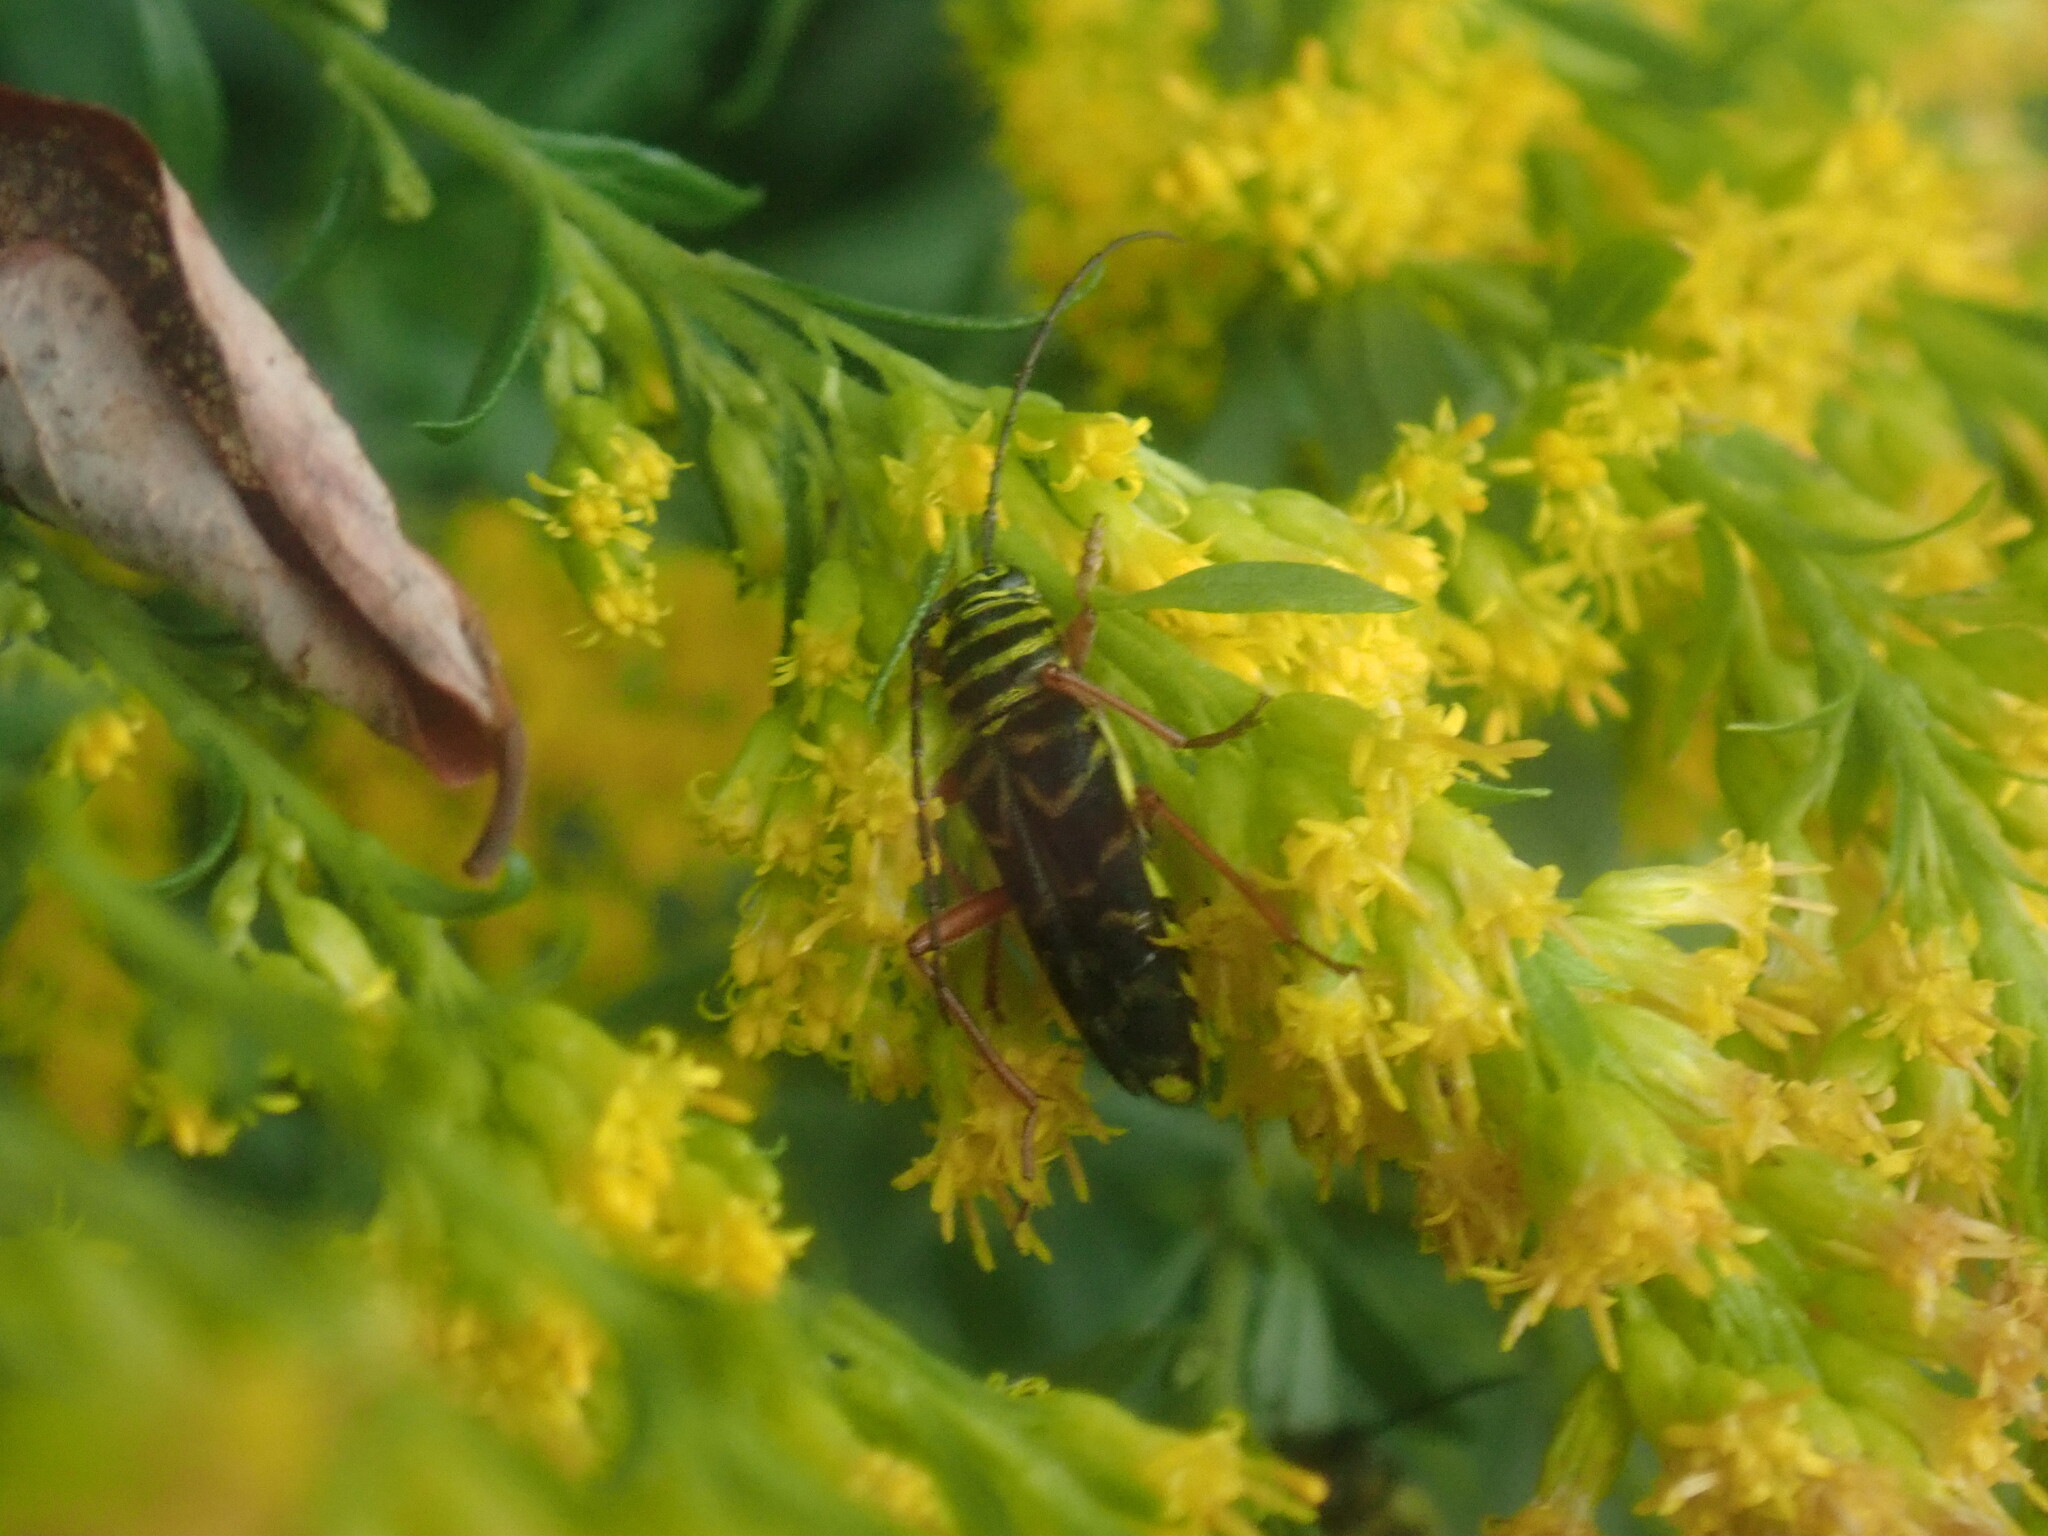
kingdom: Animalia
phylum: Arthropoda
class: Insecta
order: Coleoptera
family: Cerambycidae
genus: Megacyllene
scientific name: Megacyllene robiniae
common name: Locust borer
